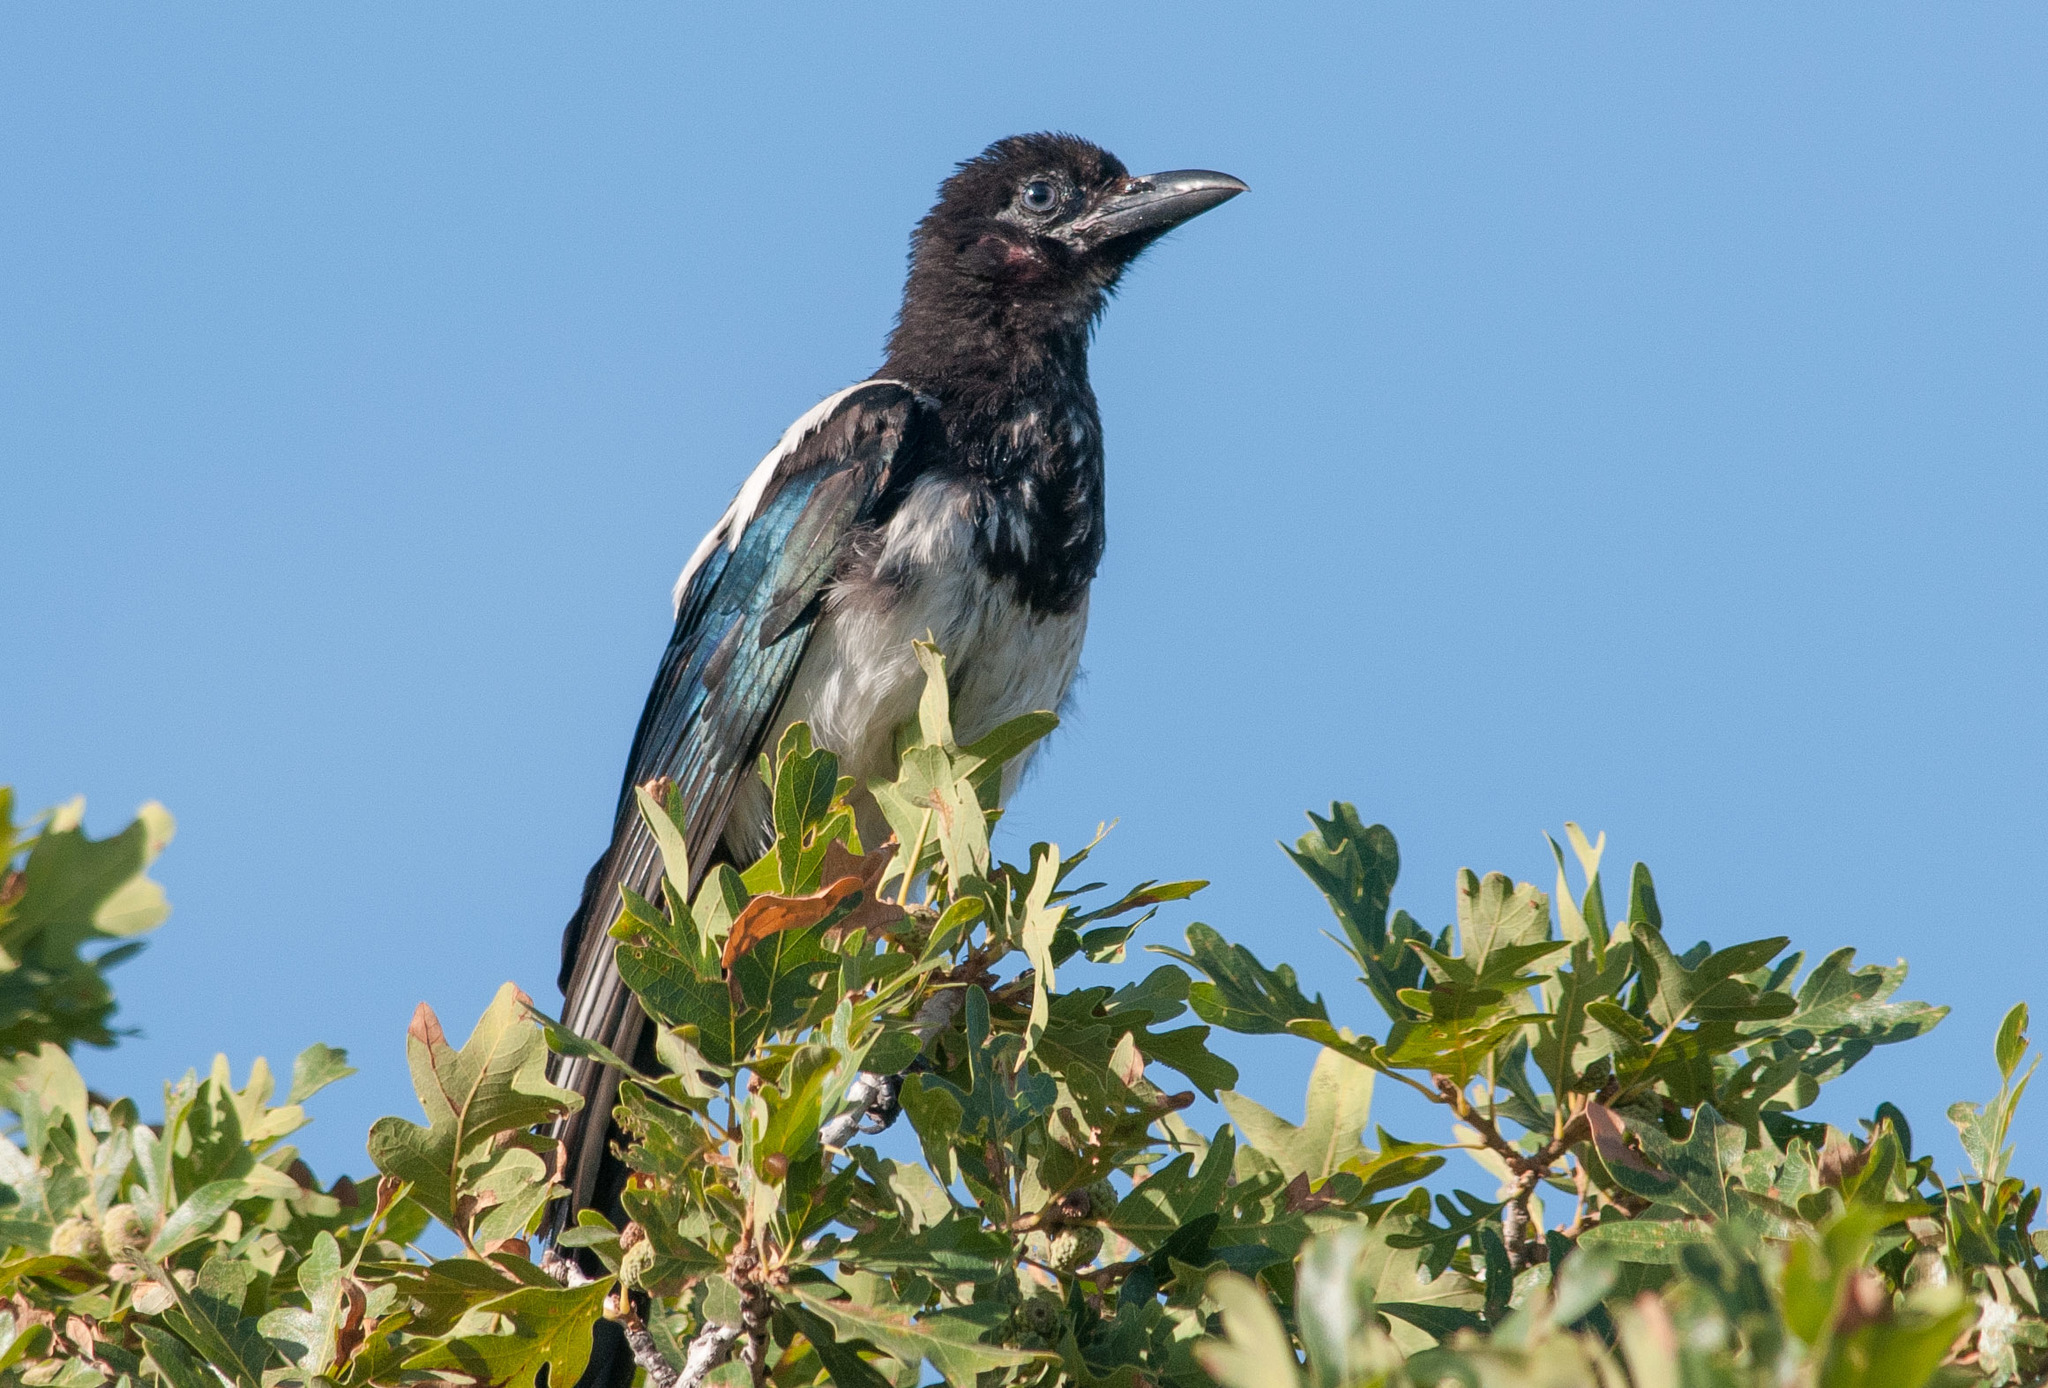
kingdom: Animalia
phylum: Chordata
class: Aves
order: Passeriformes
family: Corvidae
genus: Pica
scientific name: Pica hudsonia
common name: Black-billed magpie
